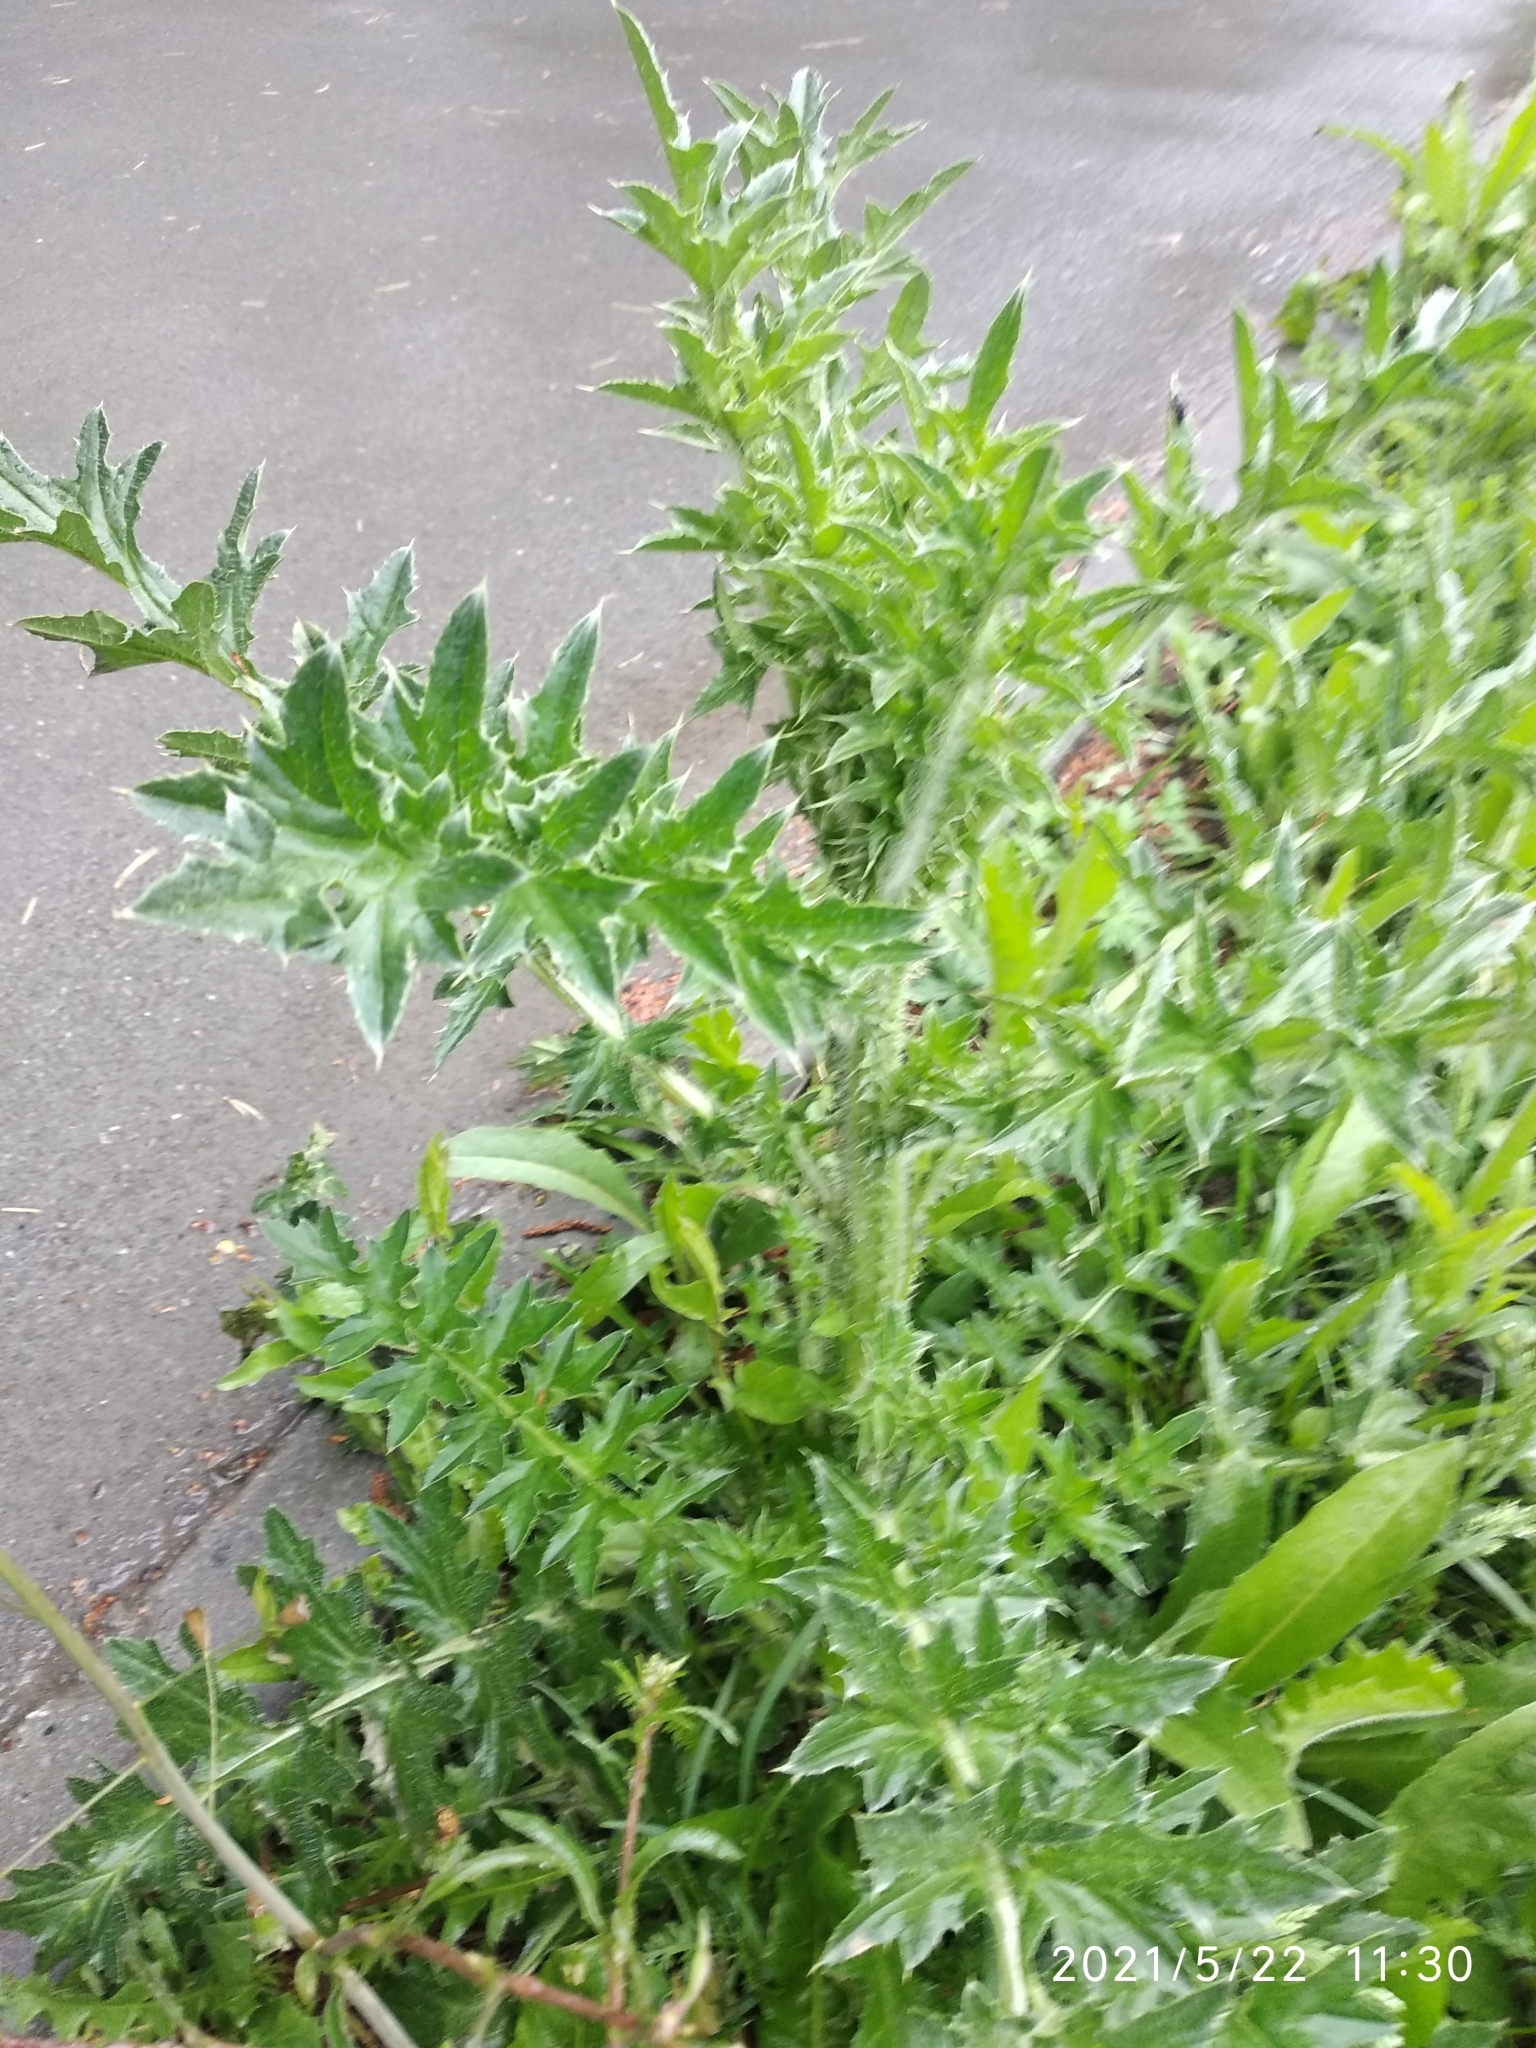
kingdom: Plantae
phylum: Tracheophyta
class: Magnoliopsida
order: Asterales
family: Asteraceae
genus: Carduus
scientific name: Carduus acanthoides
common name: Plumeless thistle
